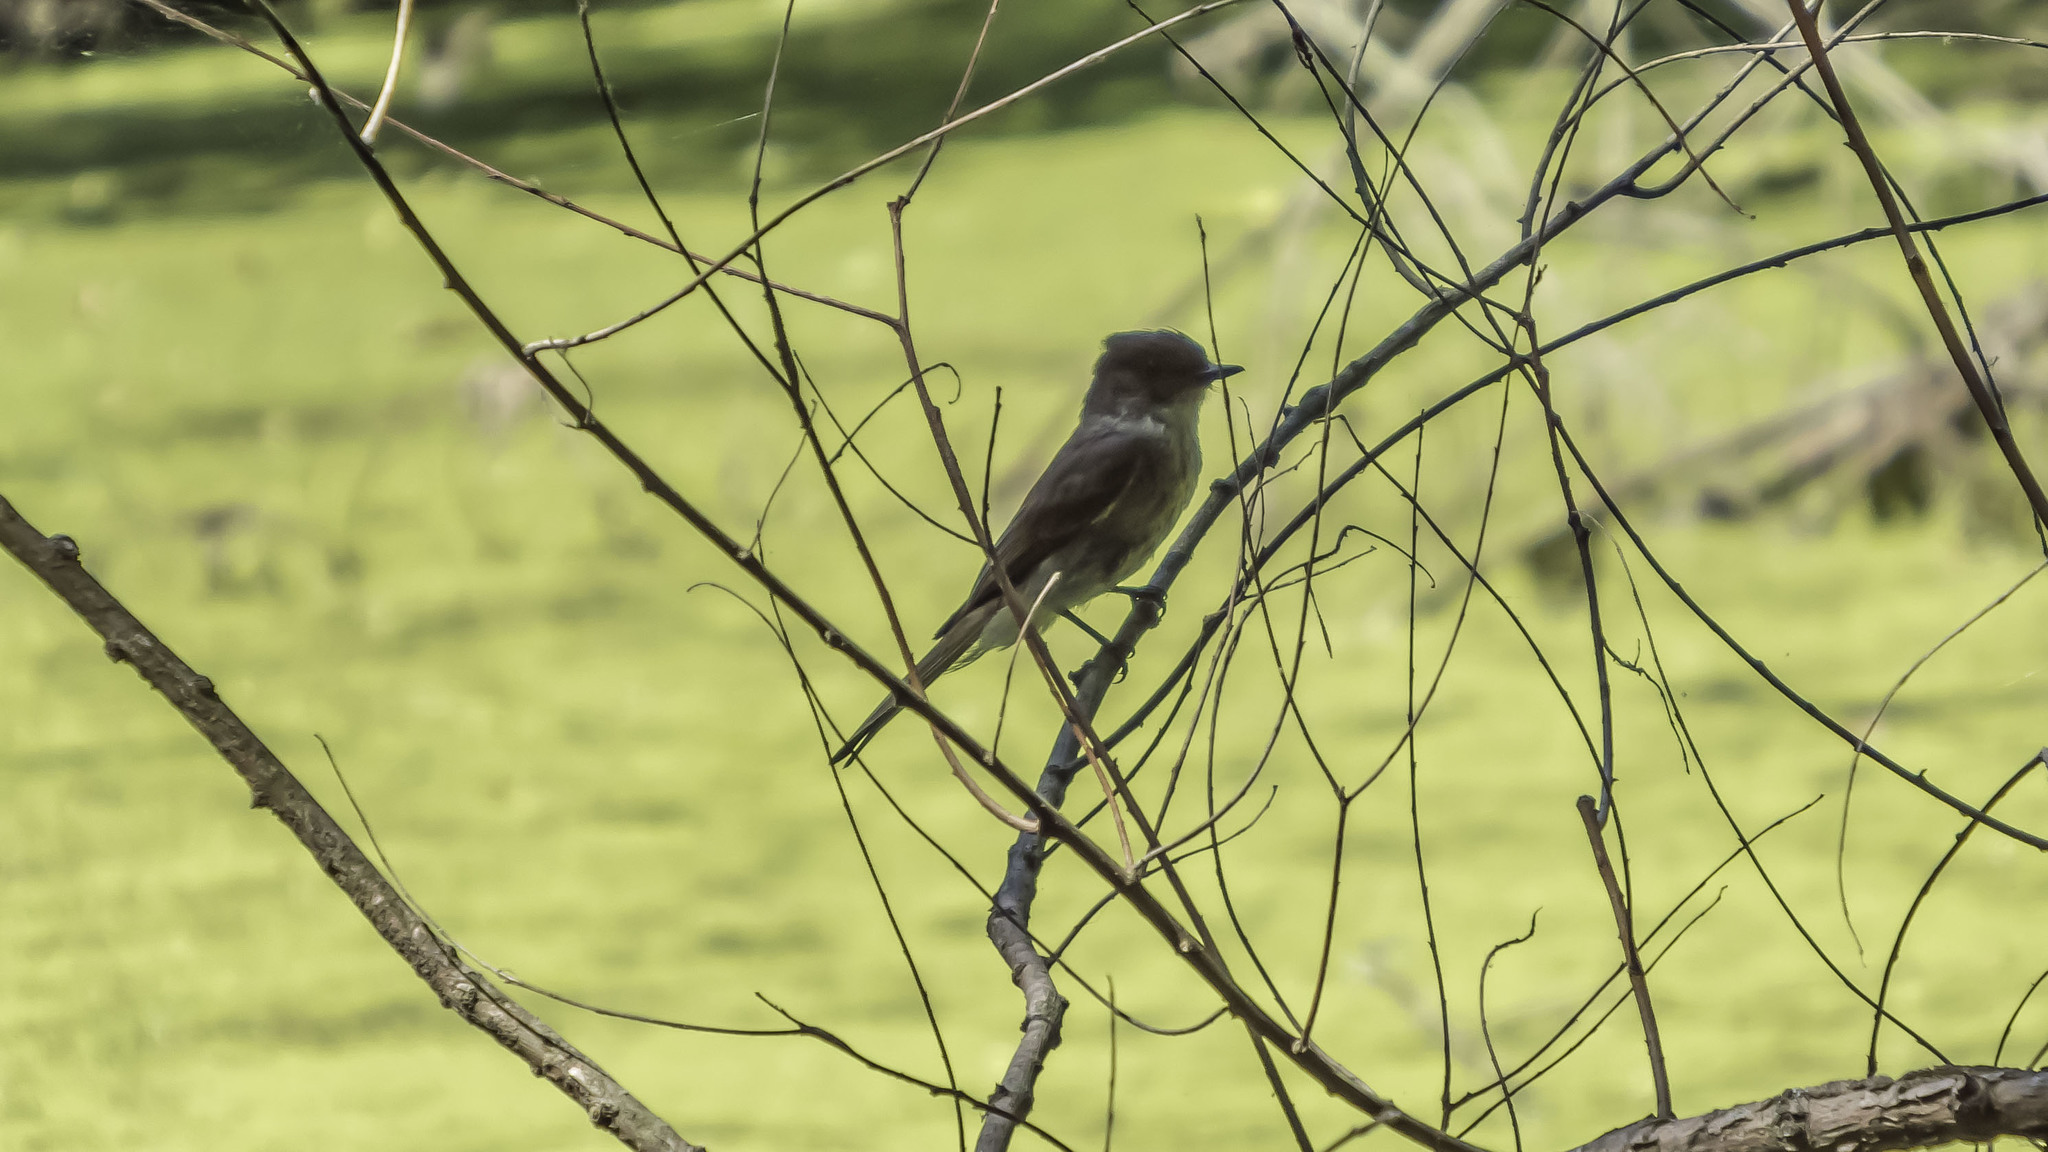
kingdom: Animalia
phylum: Chordata
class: Aves
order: Passeriformes
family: Tyrannidae
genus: Sayornis
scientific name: Sayornis phoebe
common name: Eastern phoebe
